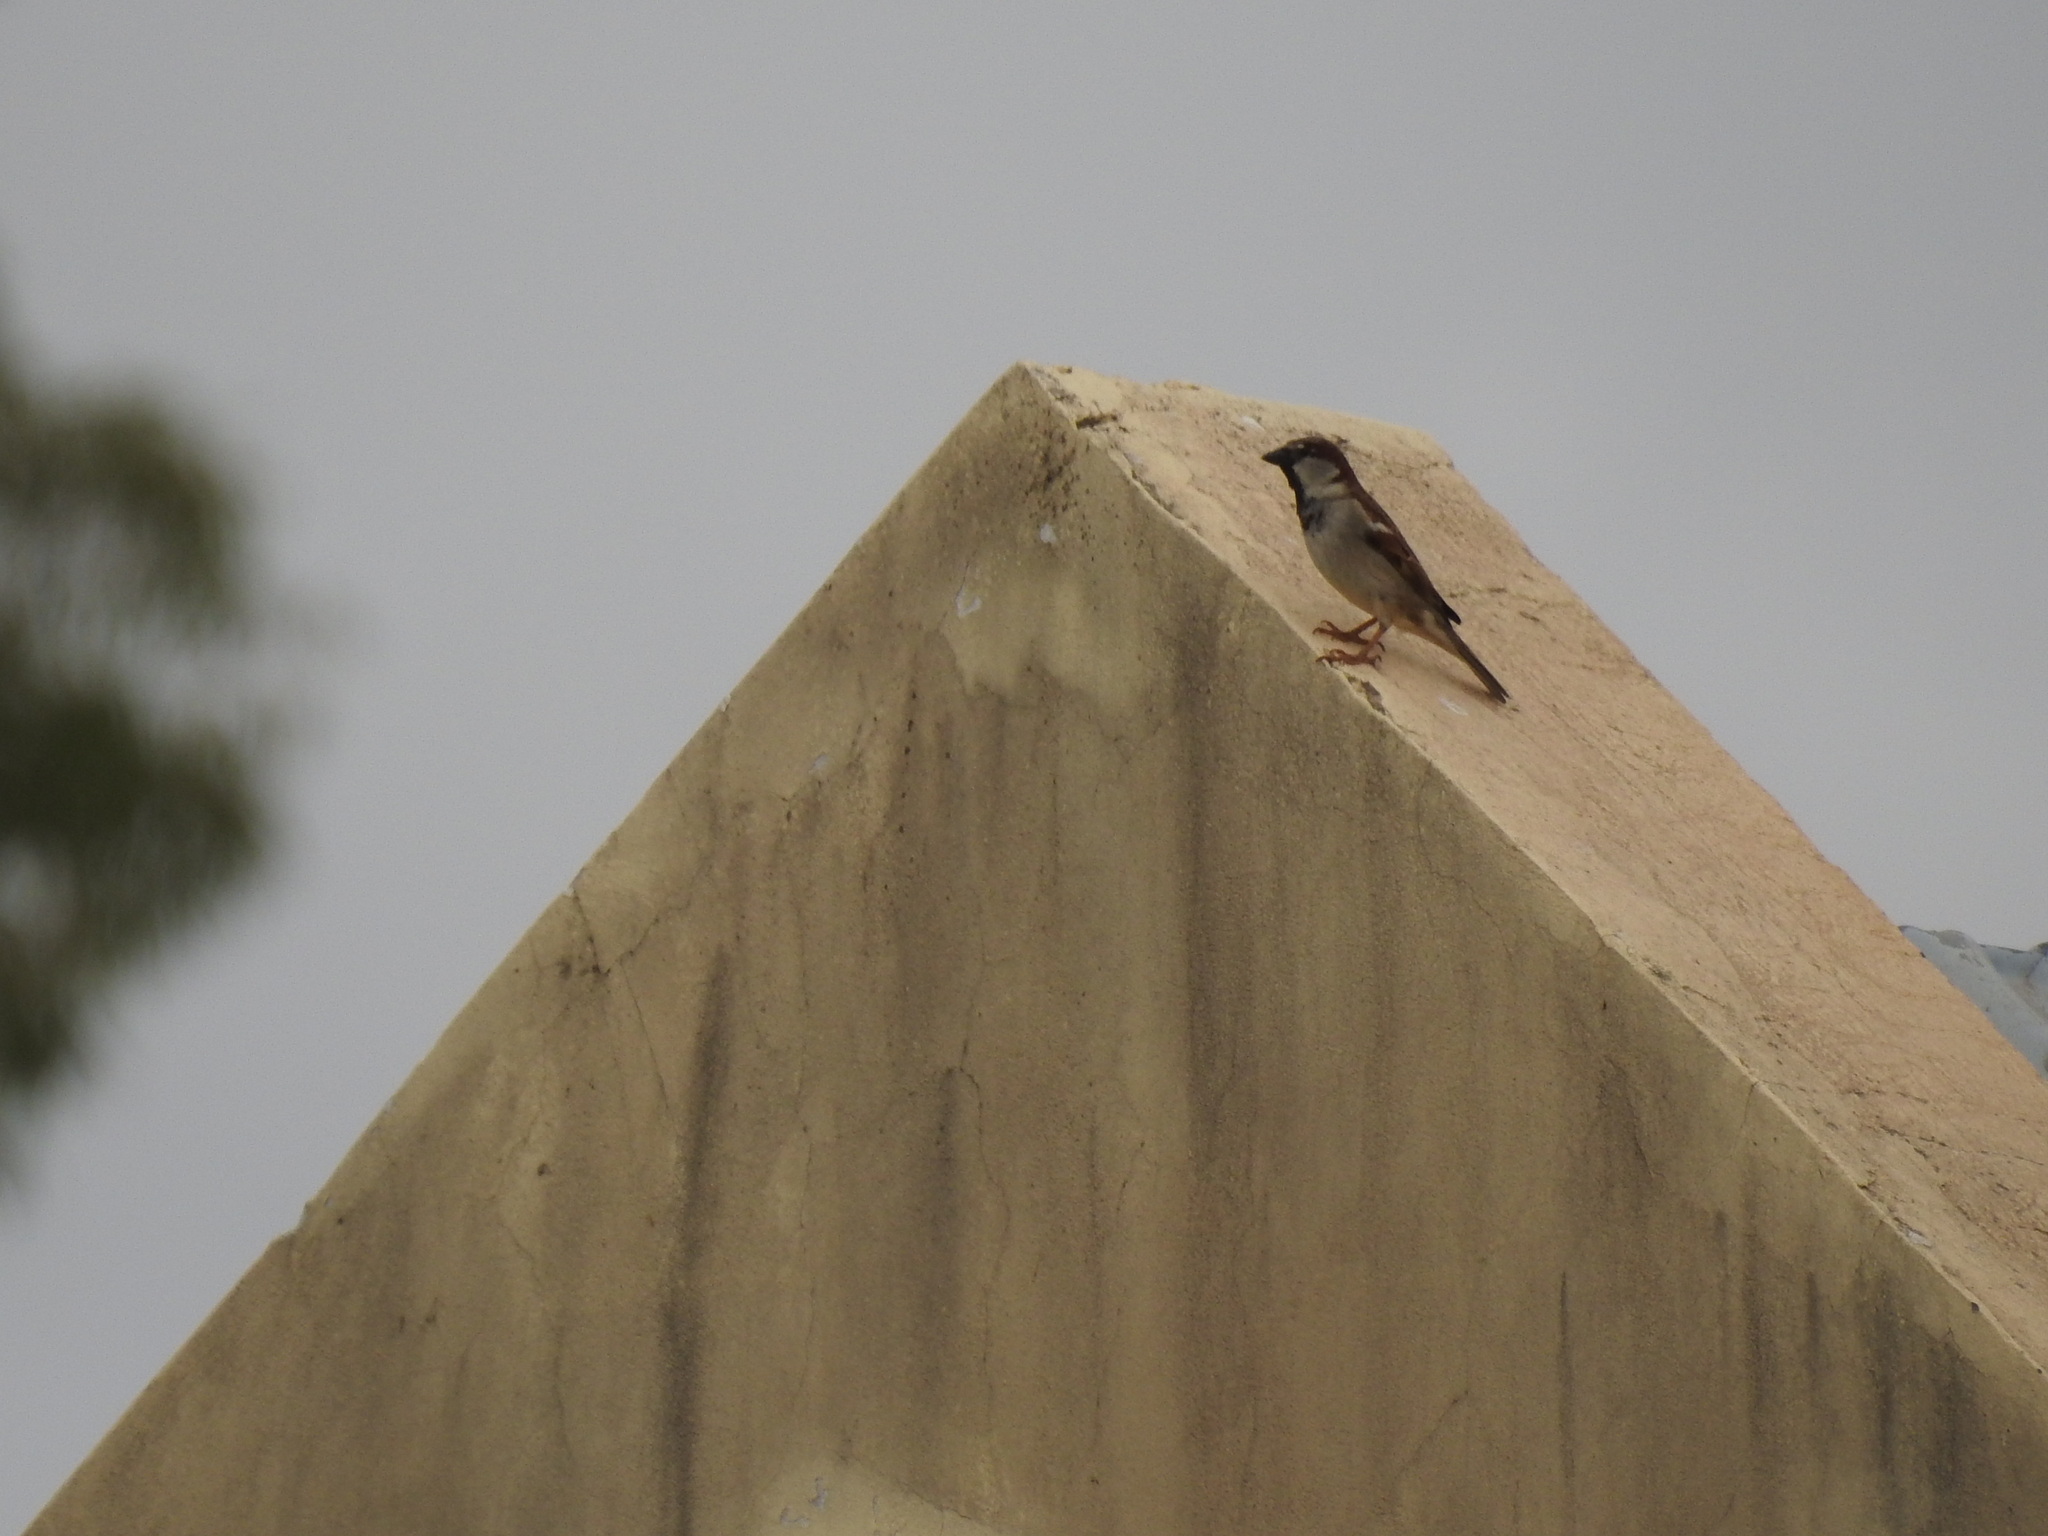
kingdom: Animalia
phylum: Chordata
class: Aves
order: Passeriformes
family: Passeridae
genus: Passer
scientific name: Passer domesticus
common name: House sparrow
